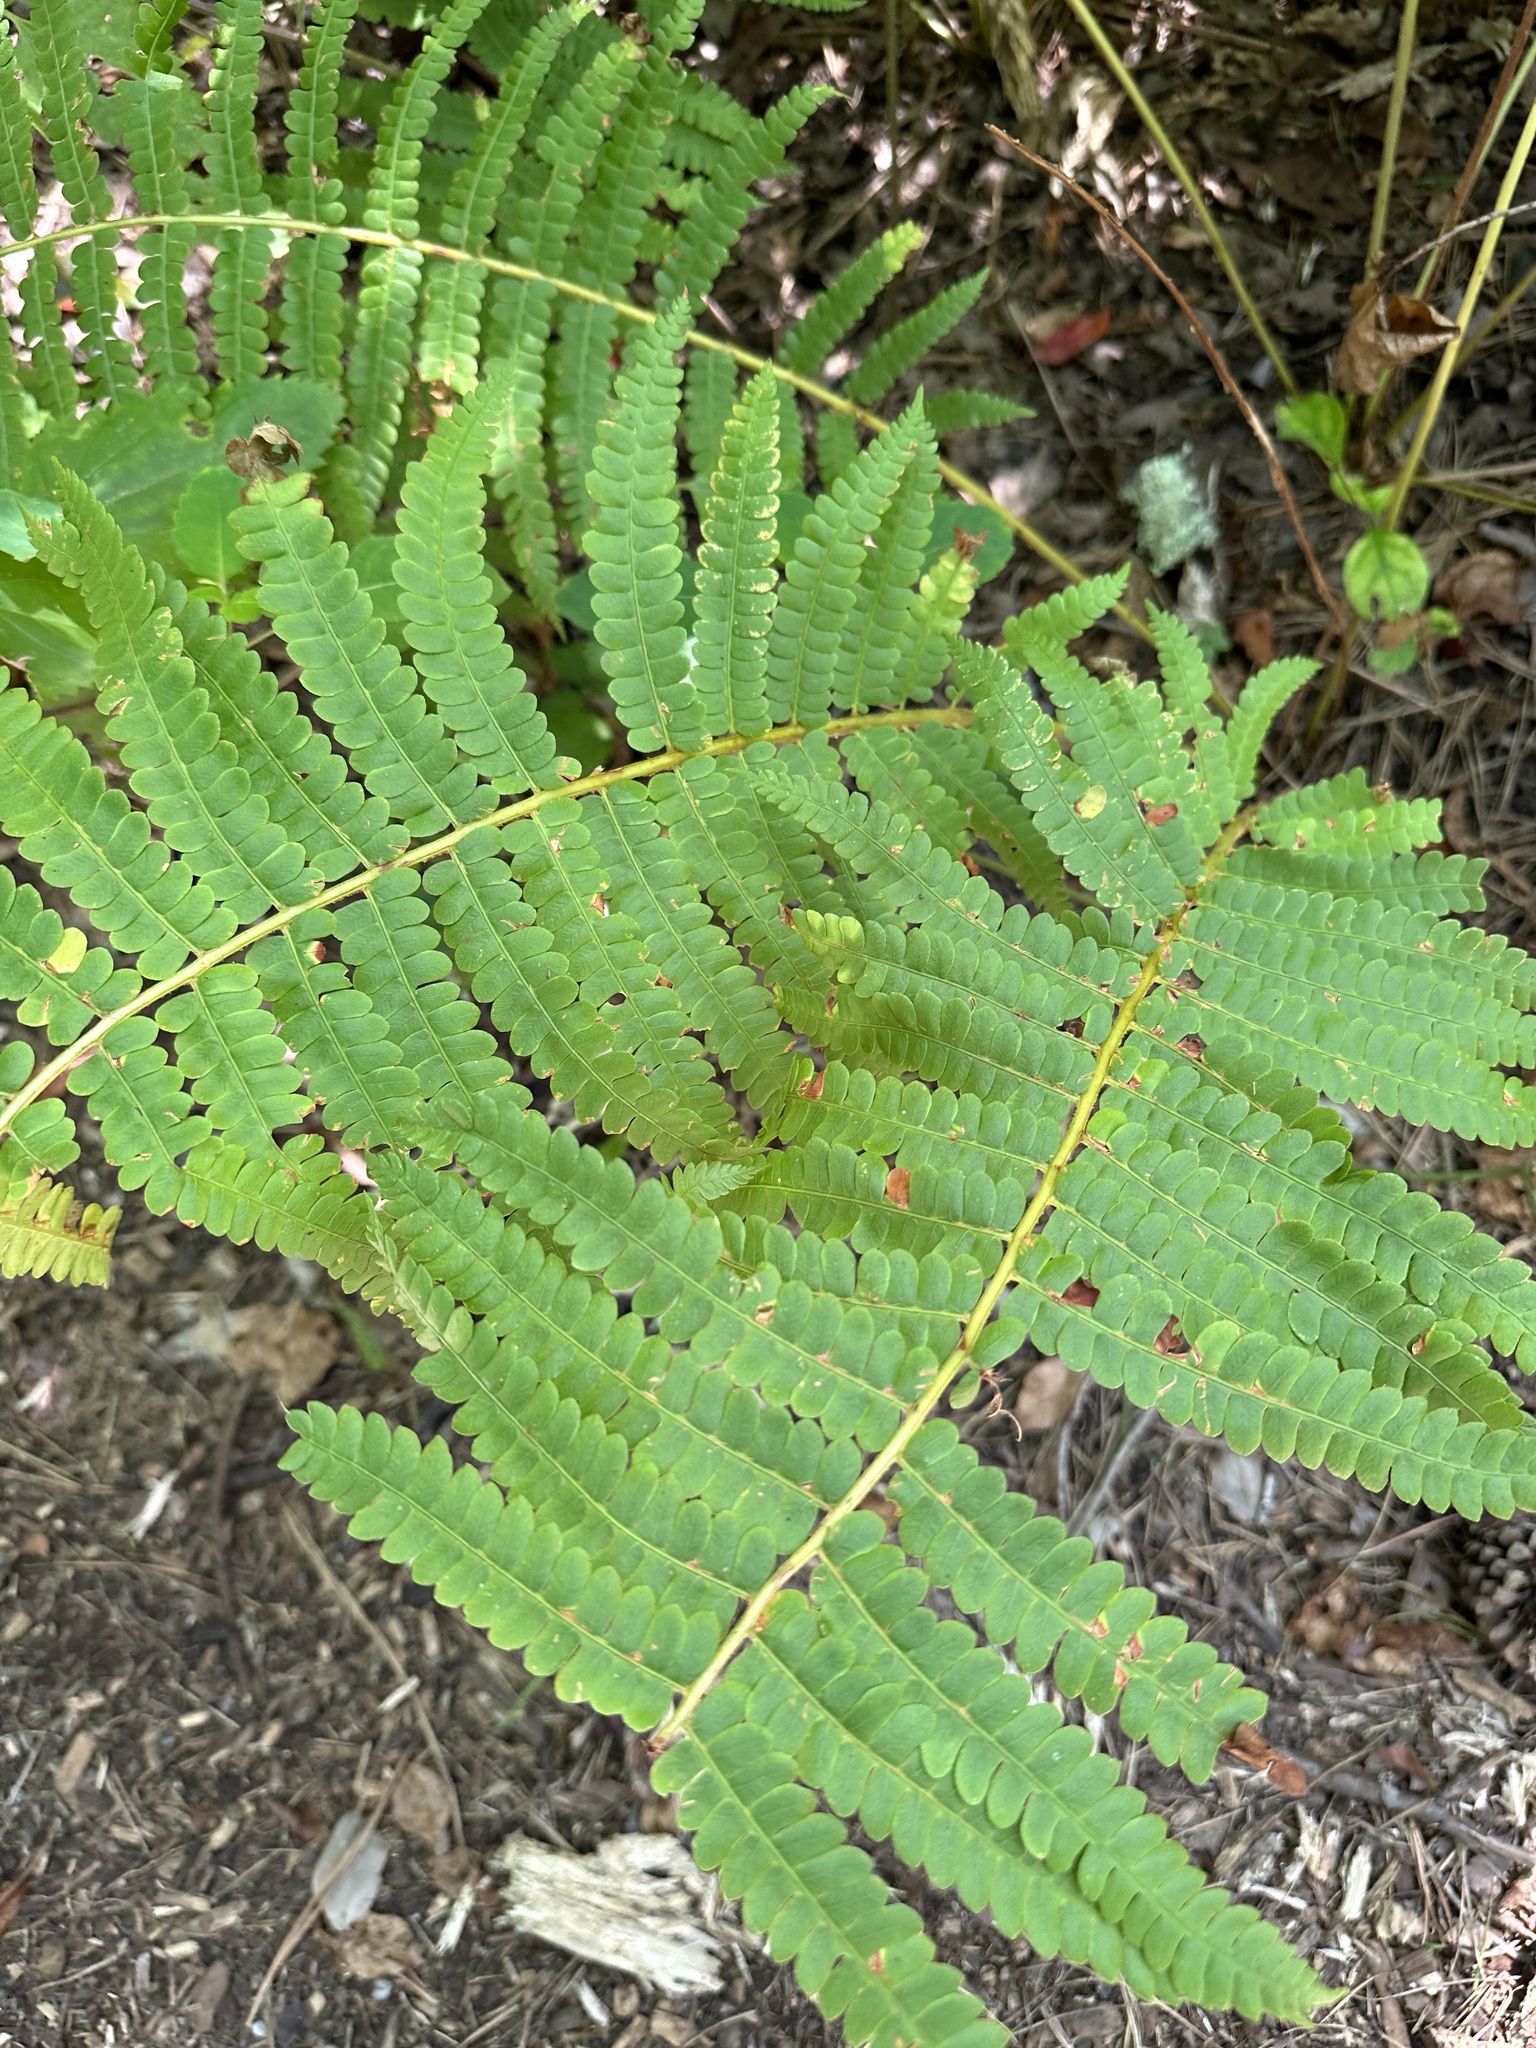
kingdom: Plantae
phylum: Tracheophyta
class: Polypodiopsida
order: Osmundales
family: Osmundaceae
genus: Osmundastrum
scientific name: Osmundastrum cinnamomeum
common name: Cinnamon fern
